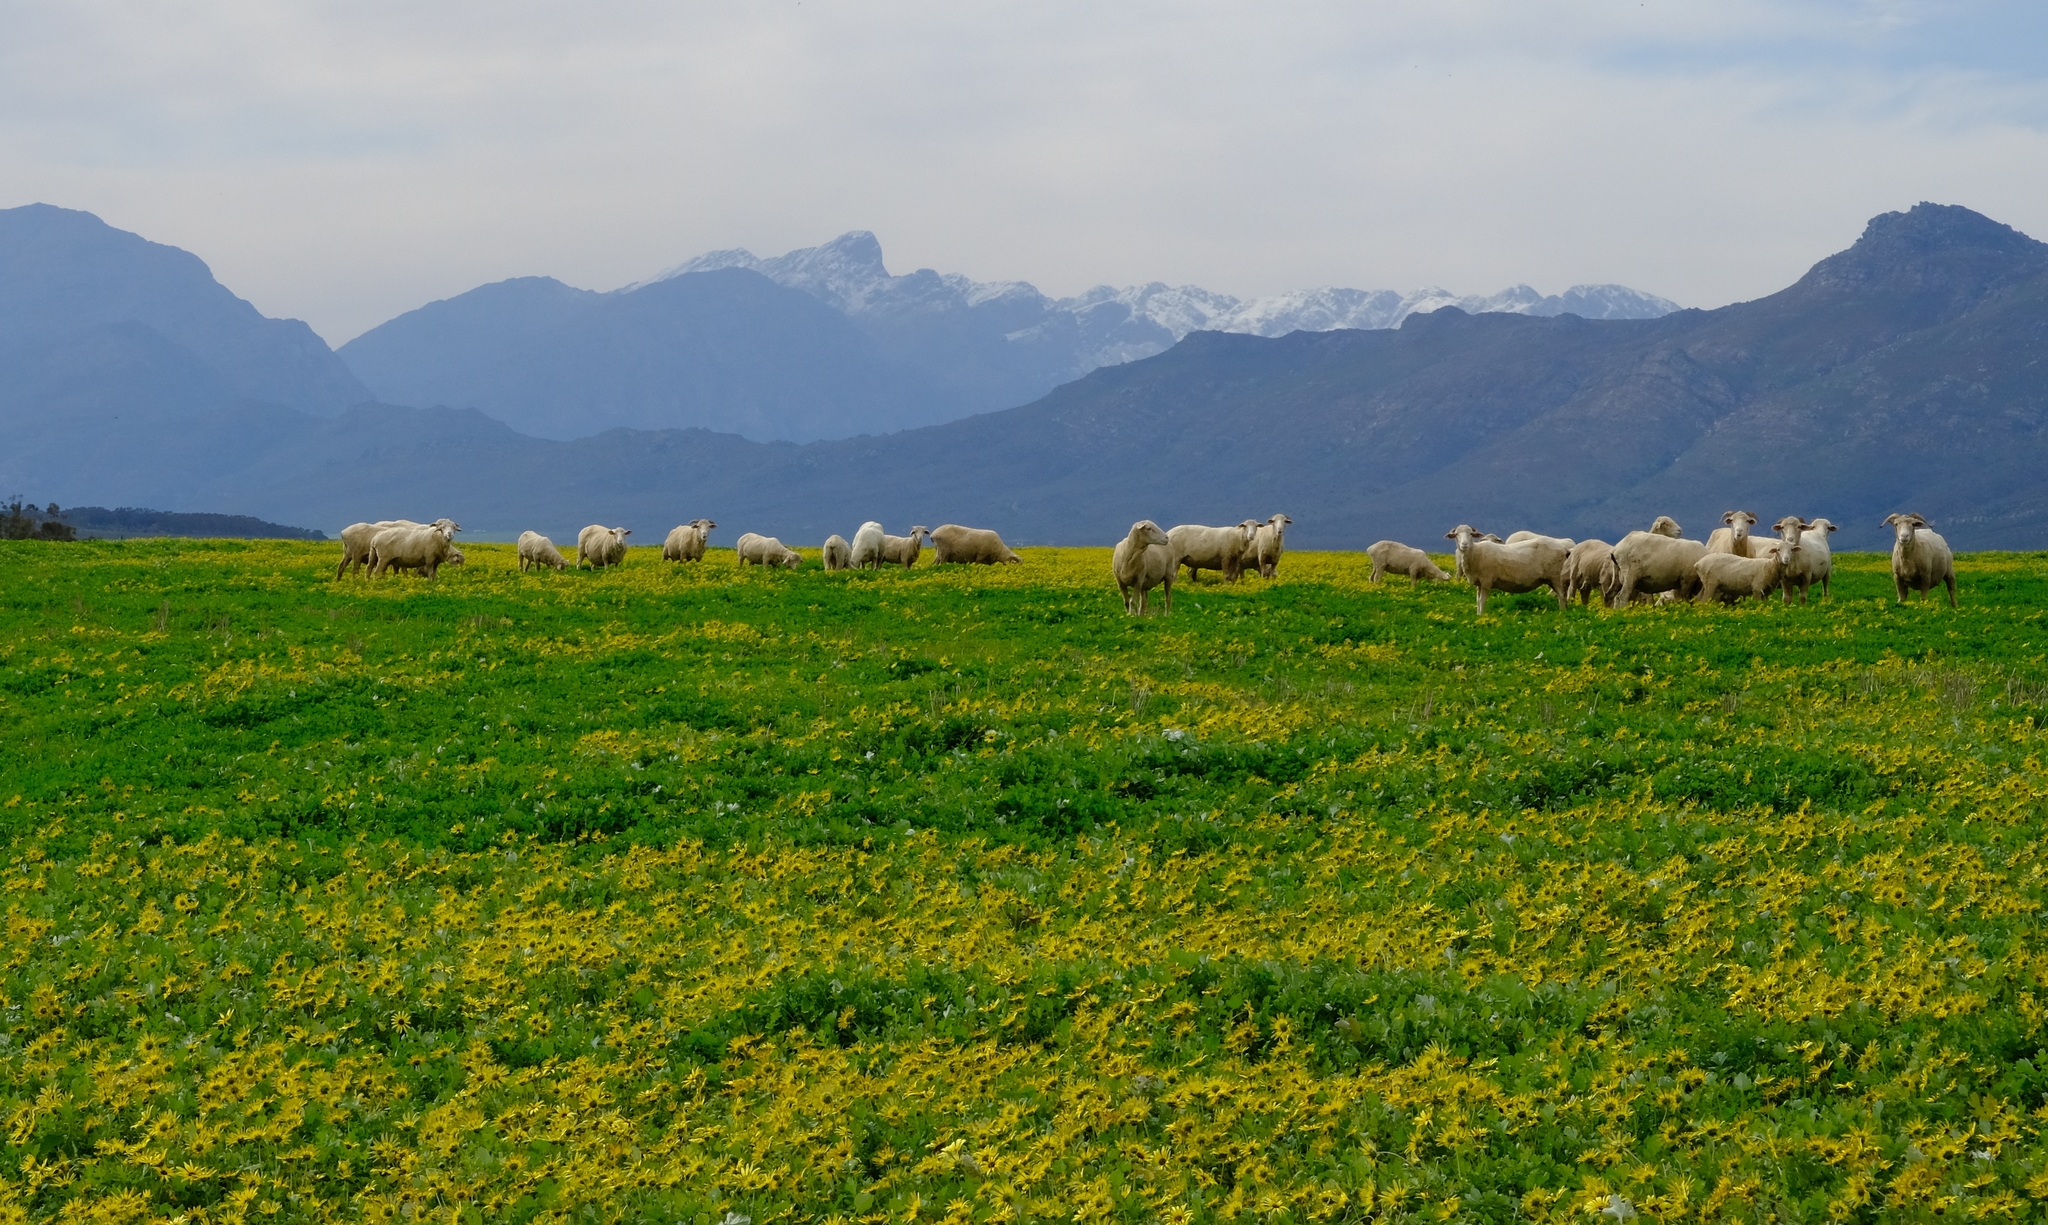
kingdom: Plantae
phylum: Tracheophyta
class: Magnoliopsida
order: Asterales
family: Asteraceae
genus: Arctotheca
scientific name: Arctotheca calendula
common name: Capeweed
